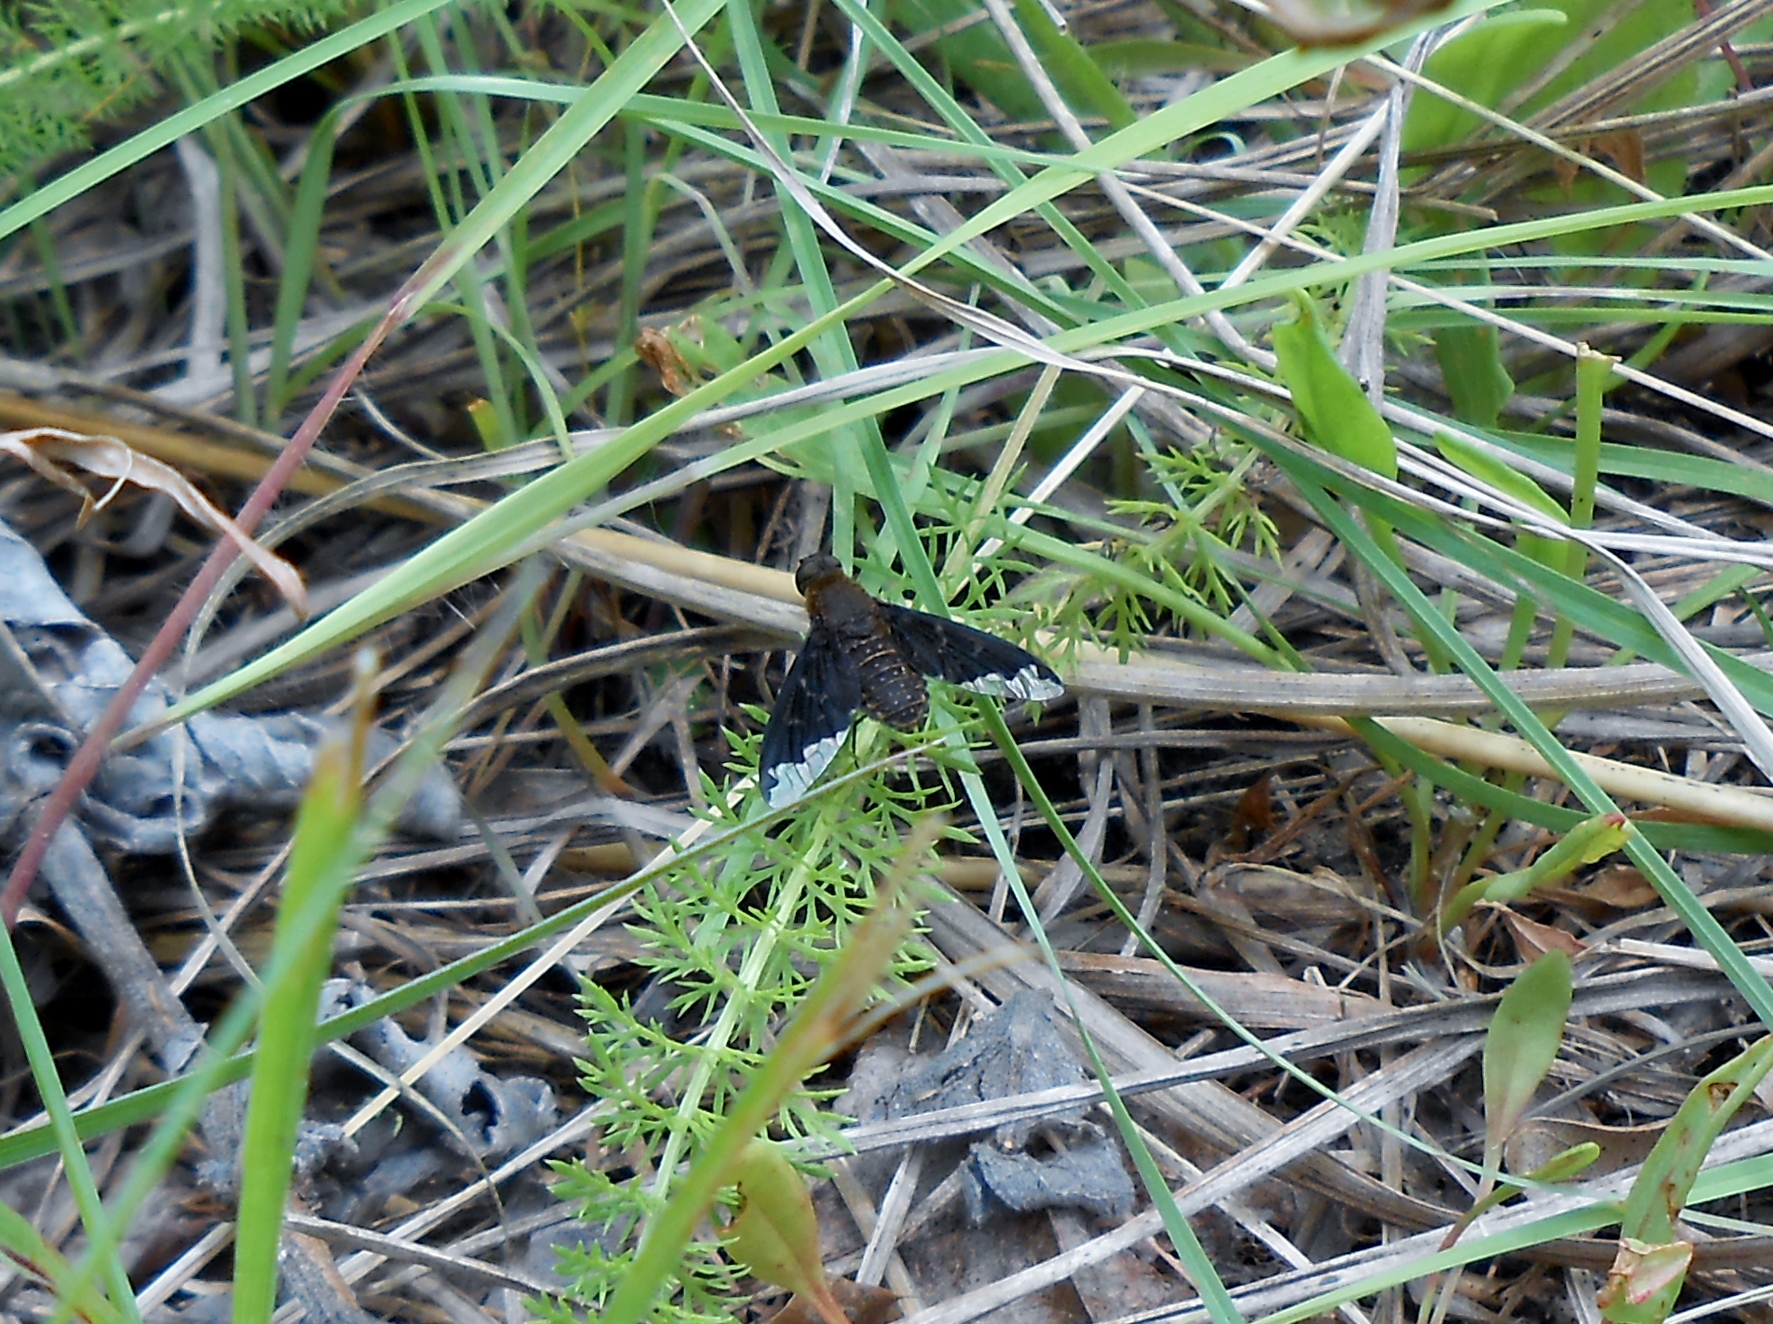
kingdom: Animalia
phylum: Arthropoda
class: Insecta
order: Diptera
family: Bombyliidae
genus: Hemipenthes
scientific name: Hemipenthes sinuosus
